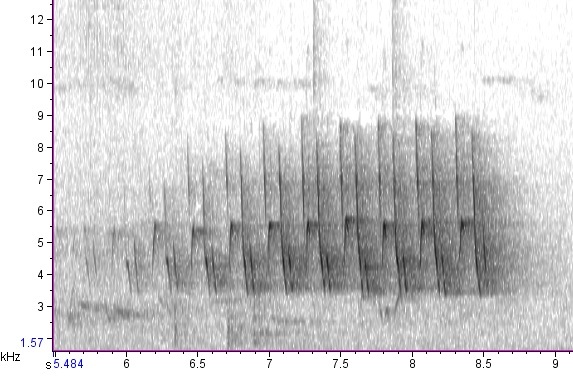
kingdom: Animalia
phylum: Chordata
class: Aves
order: Passeriformes
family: Parulidae
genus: Seiurus
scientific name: Seiurus aurocapilla
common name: Ovenbird
